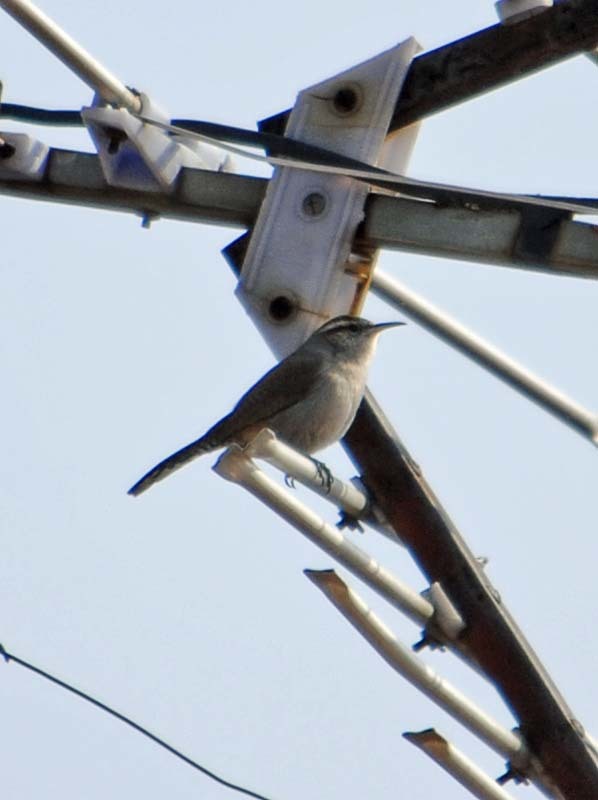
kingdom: Animalia
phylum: Chordata
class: Aves
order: Passeriformes
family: Troglodytidae
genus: Thryomanes
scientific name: Thryomanes bewickii
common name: Bewick's wren
